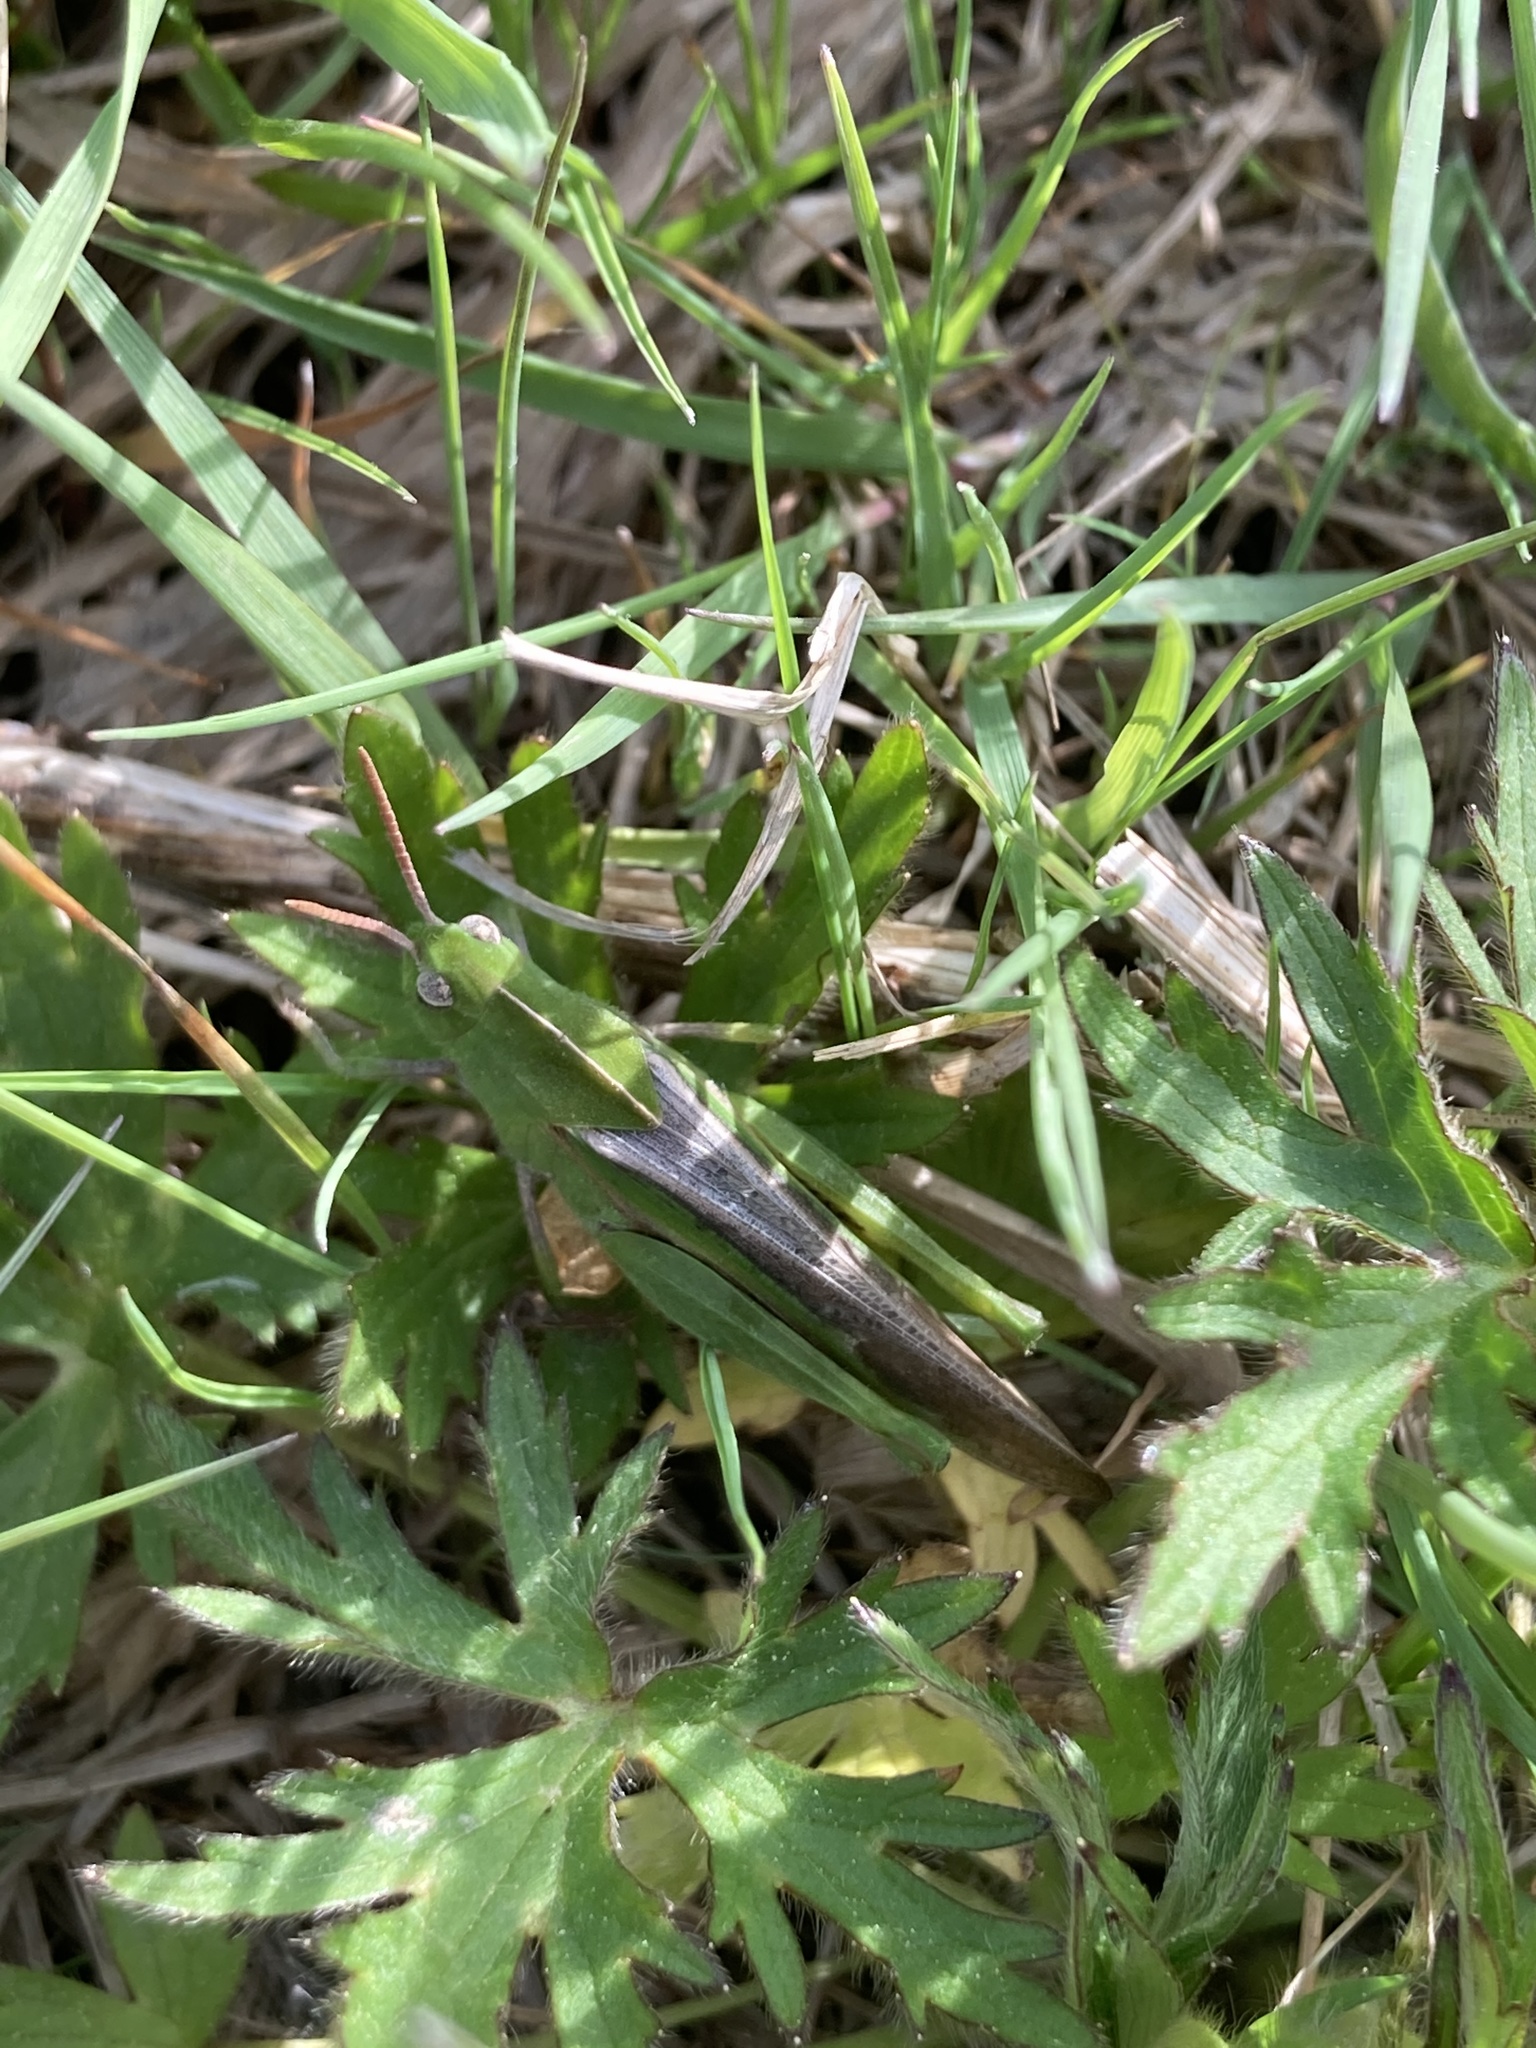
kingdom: Animalia
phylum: Arthropoda
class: Insecta
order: Orthoptera
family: Acrididae
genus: Chortophaga
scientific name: Chortophaga viridifasciata
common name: Green-striped grasshopper
